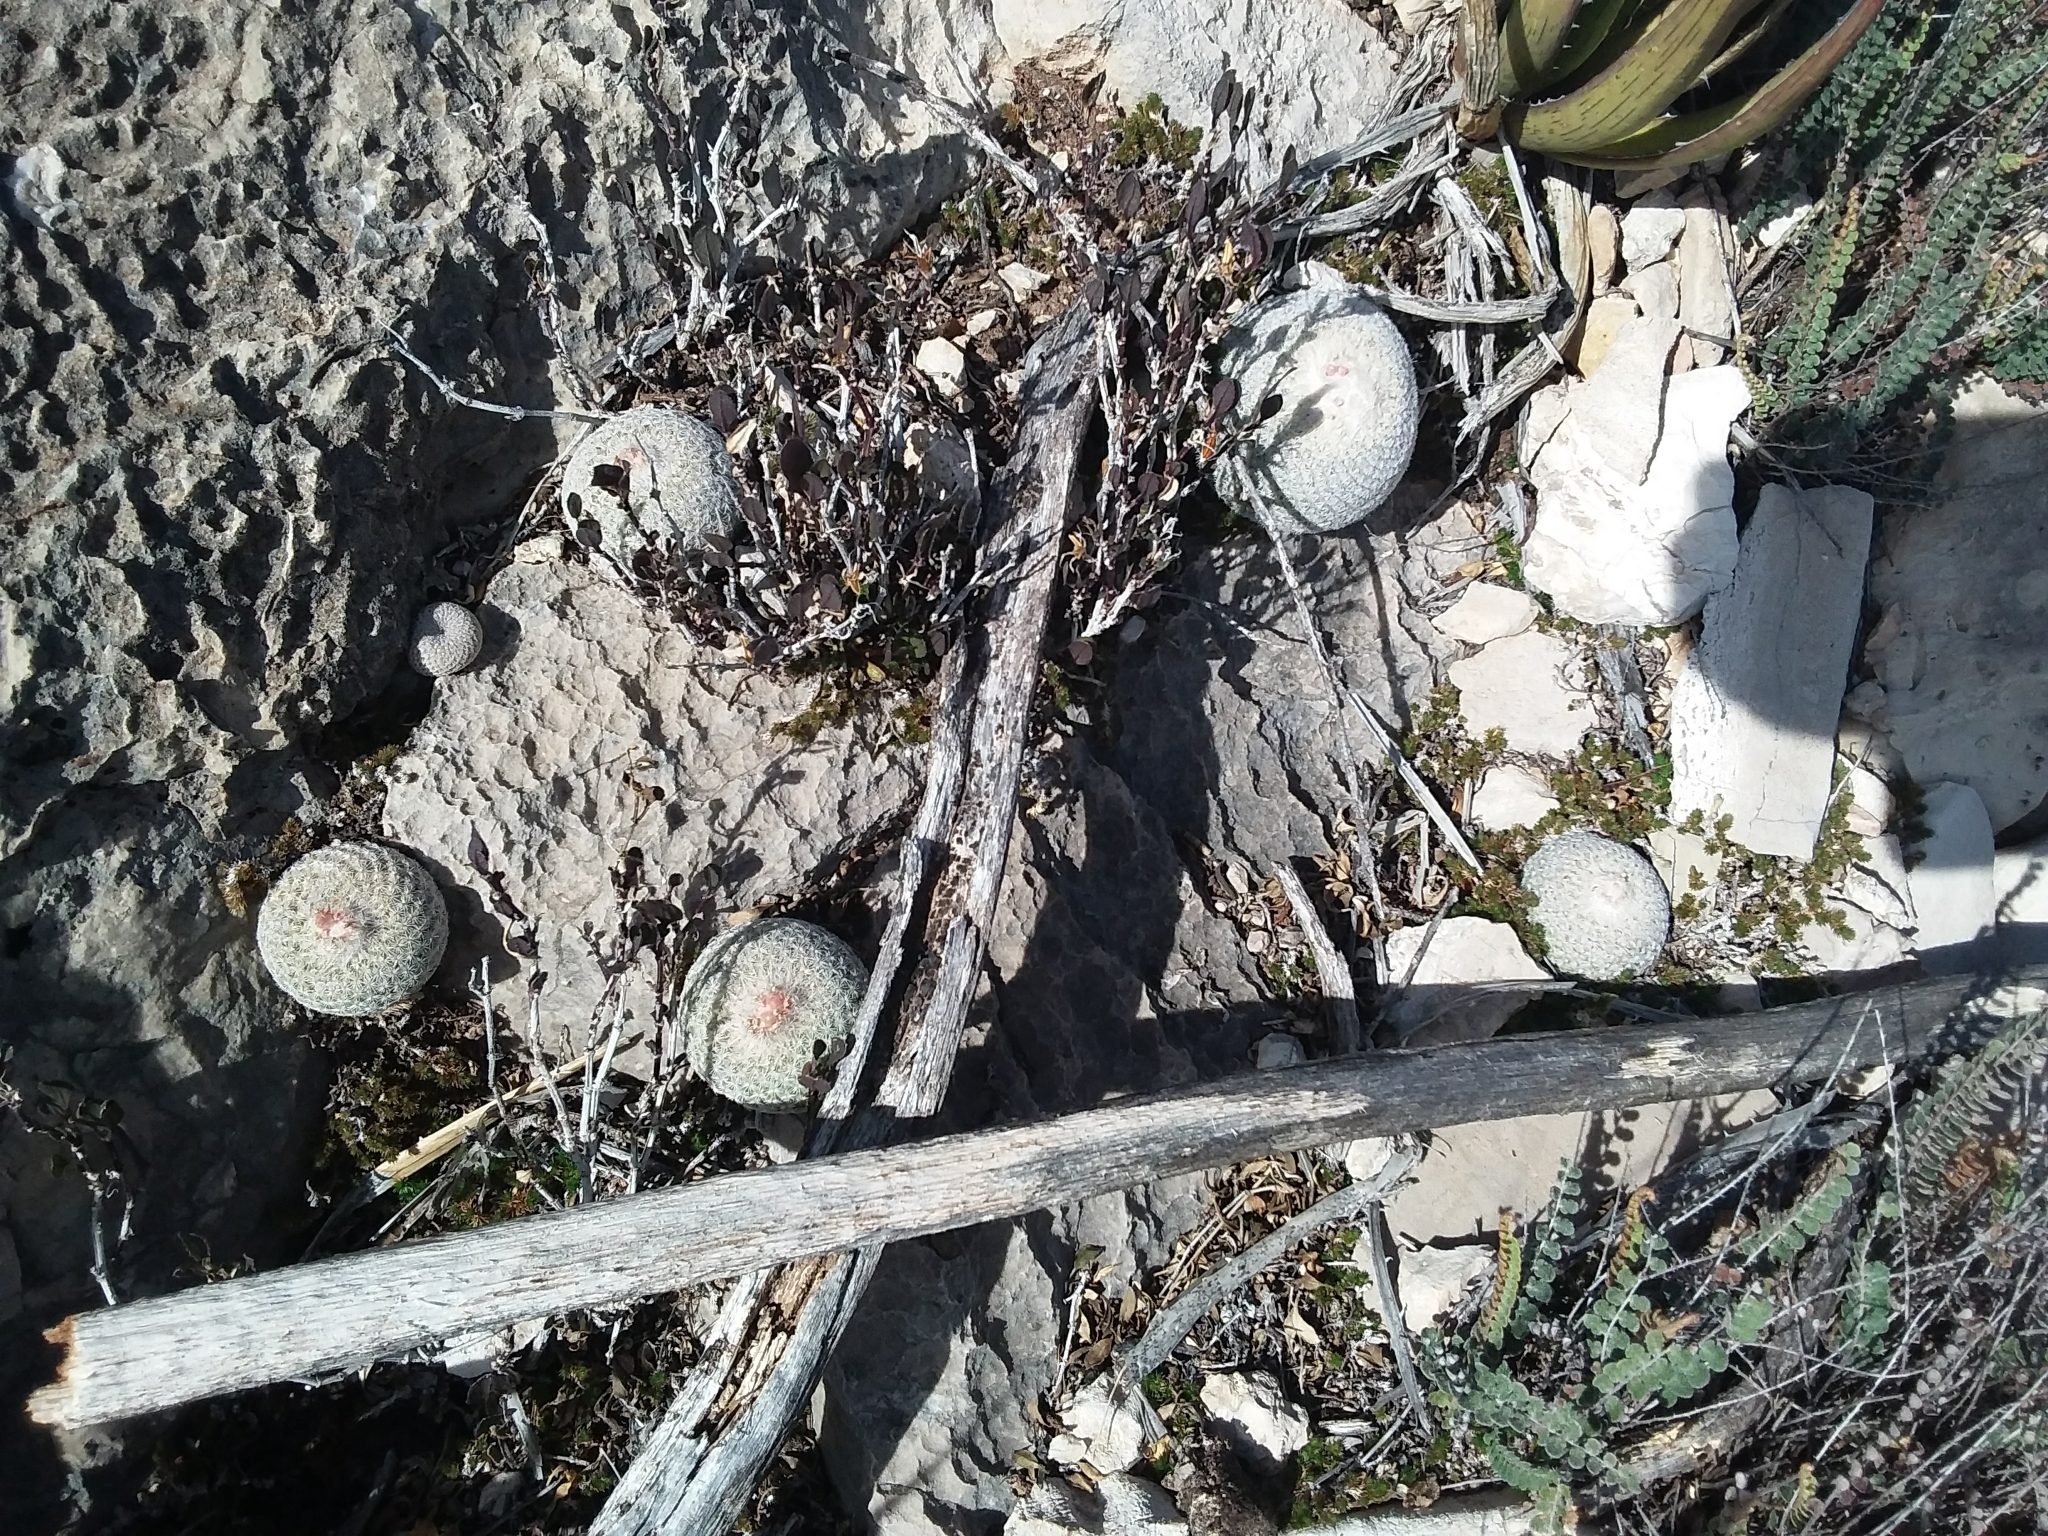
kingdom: Plantae
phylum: Tracheophyta
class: Magnoliopsida
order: Caryophyllales
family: Cactaceae
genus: Epithelantha
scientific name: Epithelantha micromeris
